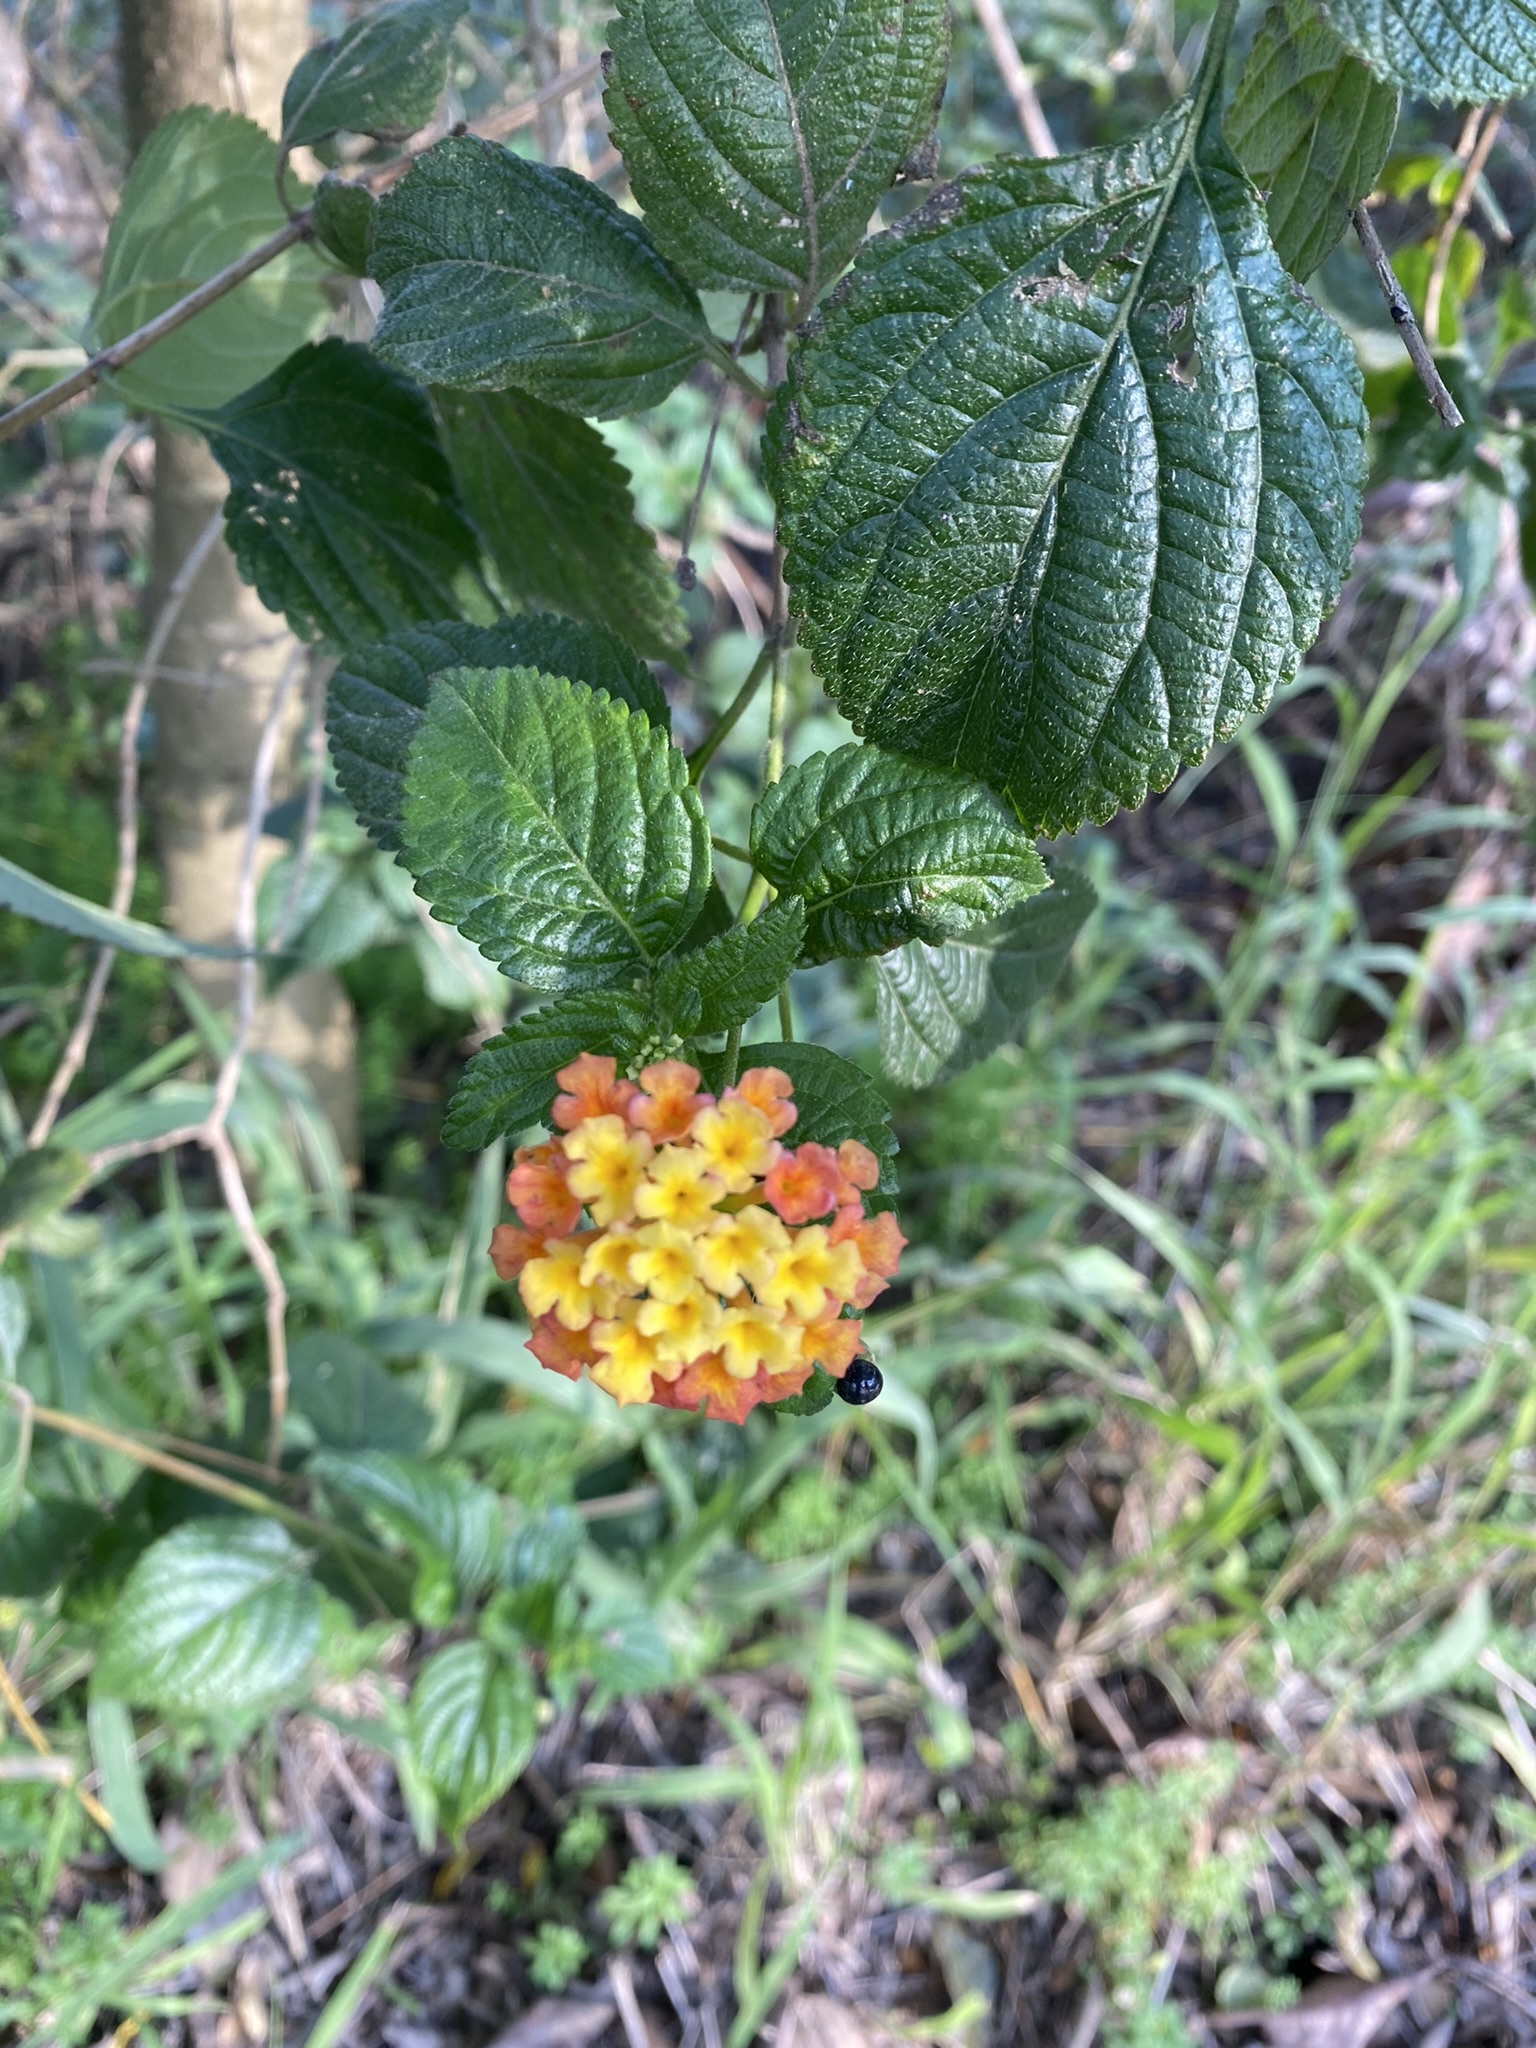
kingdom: Plantae
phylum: Tracheophyta
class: Magnoliopsida
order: Lamiales
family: Verbenaceae
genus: Lantana
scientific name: Lantana camara
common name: Lantana
